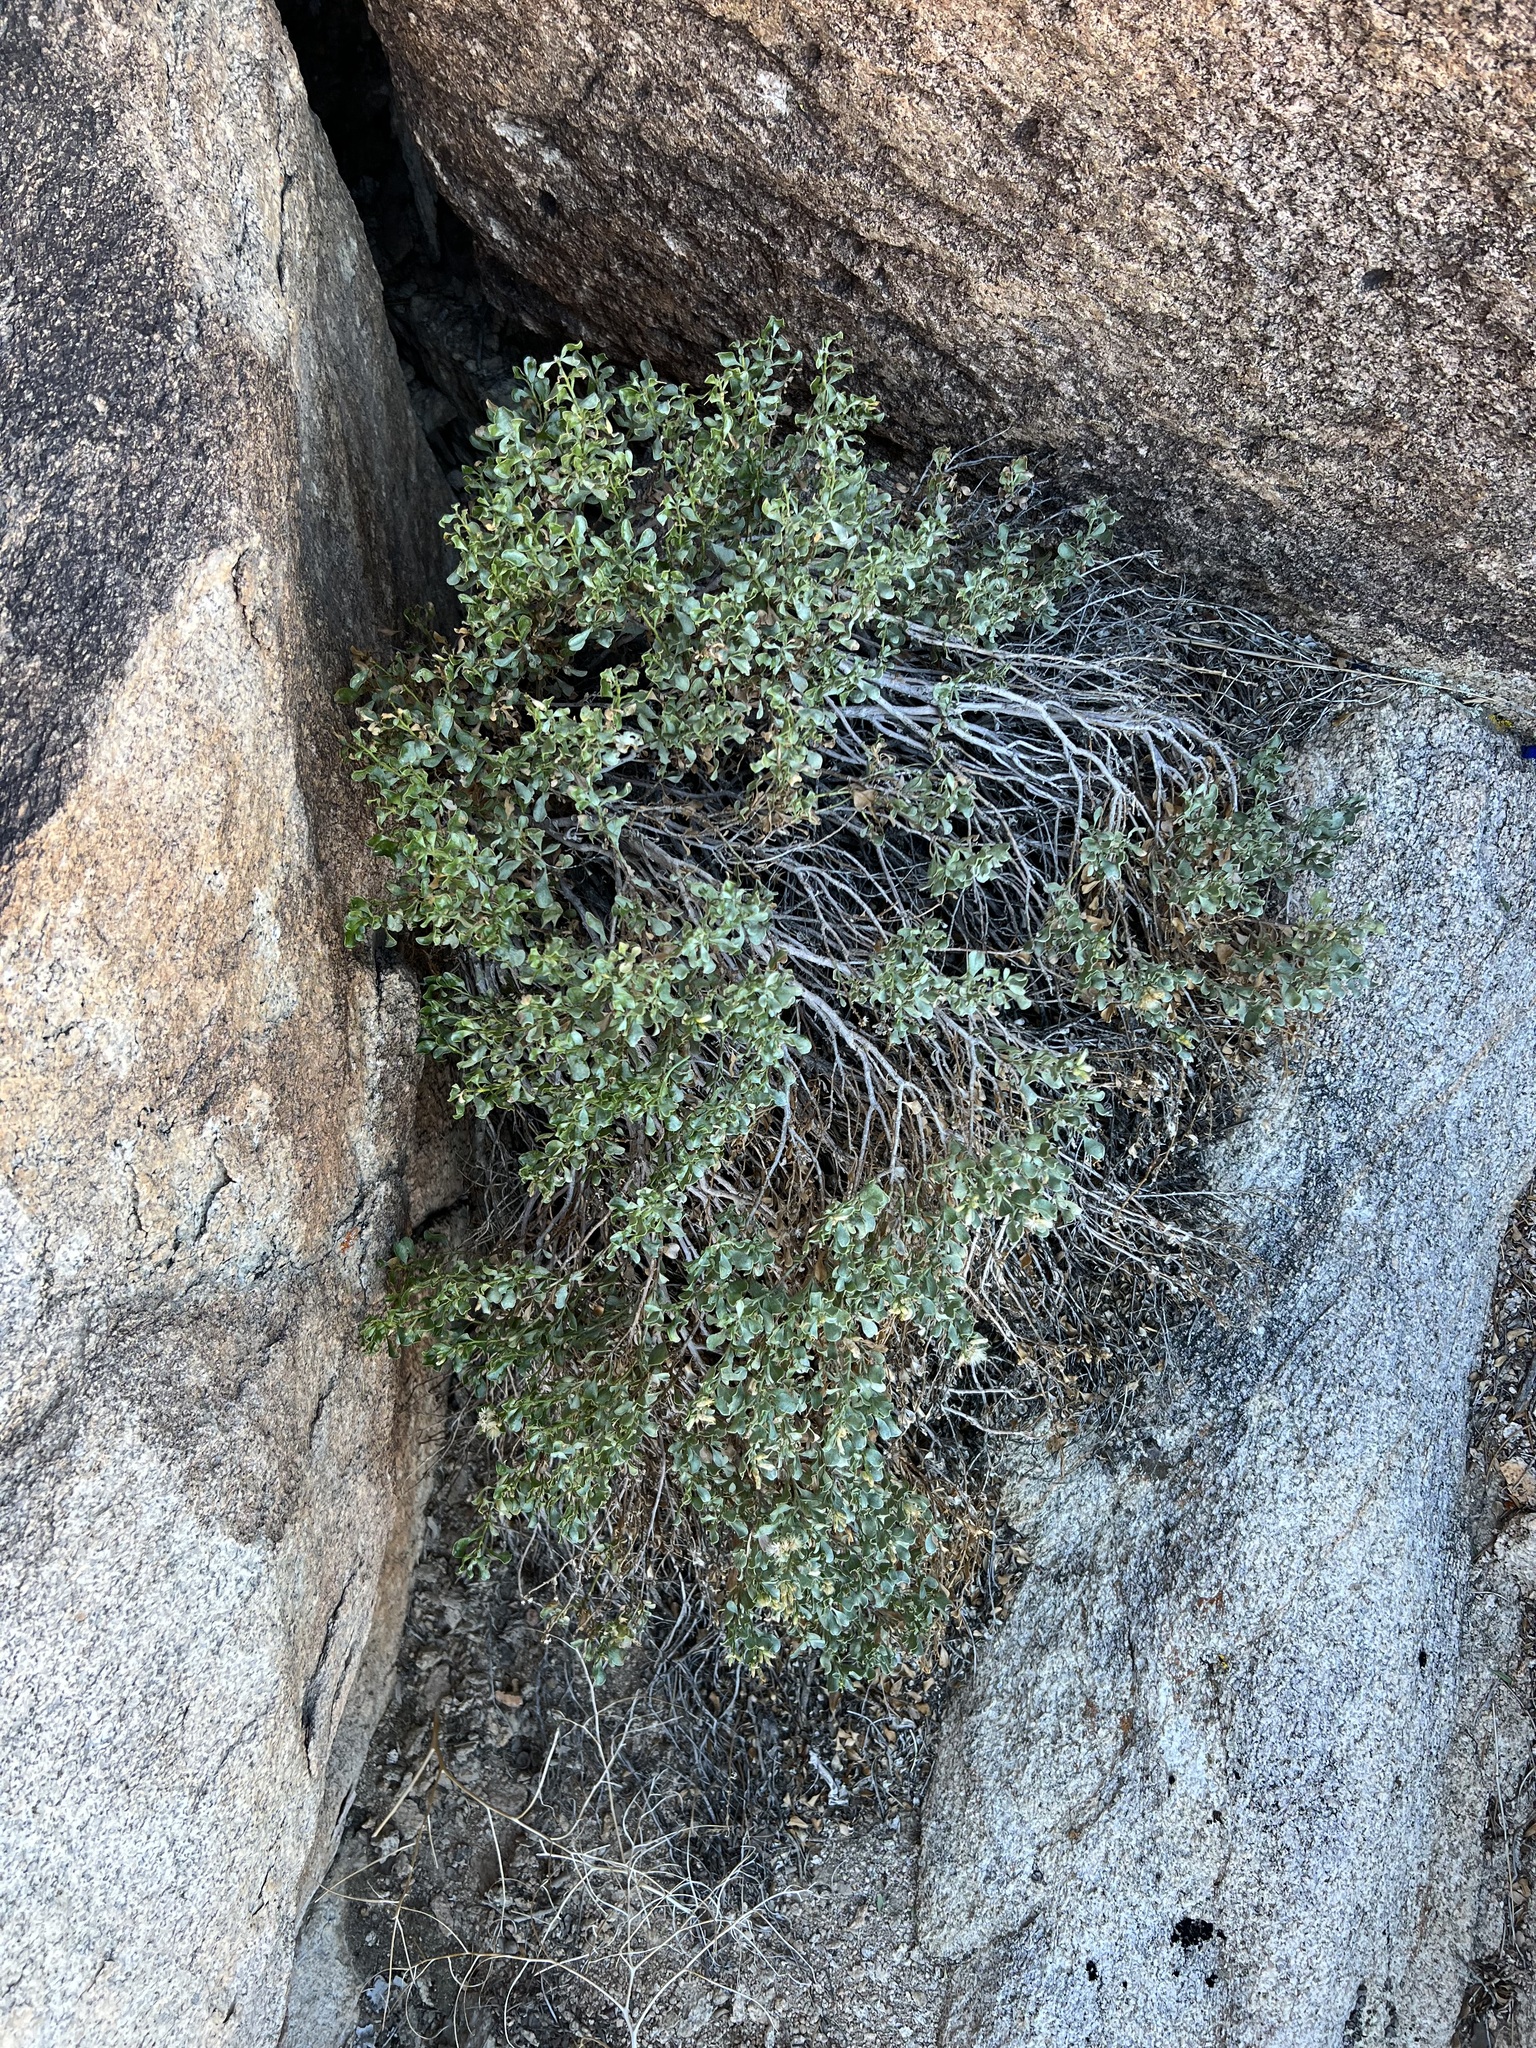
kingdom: Plantae
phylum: Tracheophyta
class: Magnoliopsida
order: Asterales
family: Asteraceae
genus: Ericameria
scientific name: Ericameria cuneata
